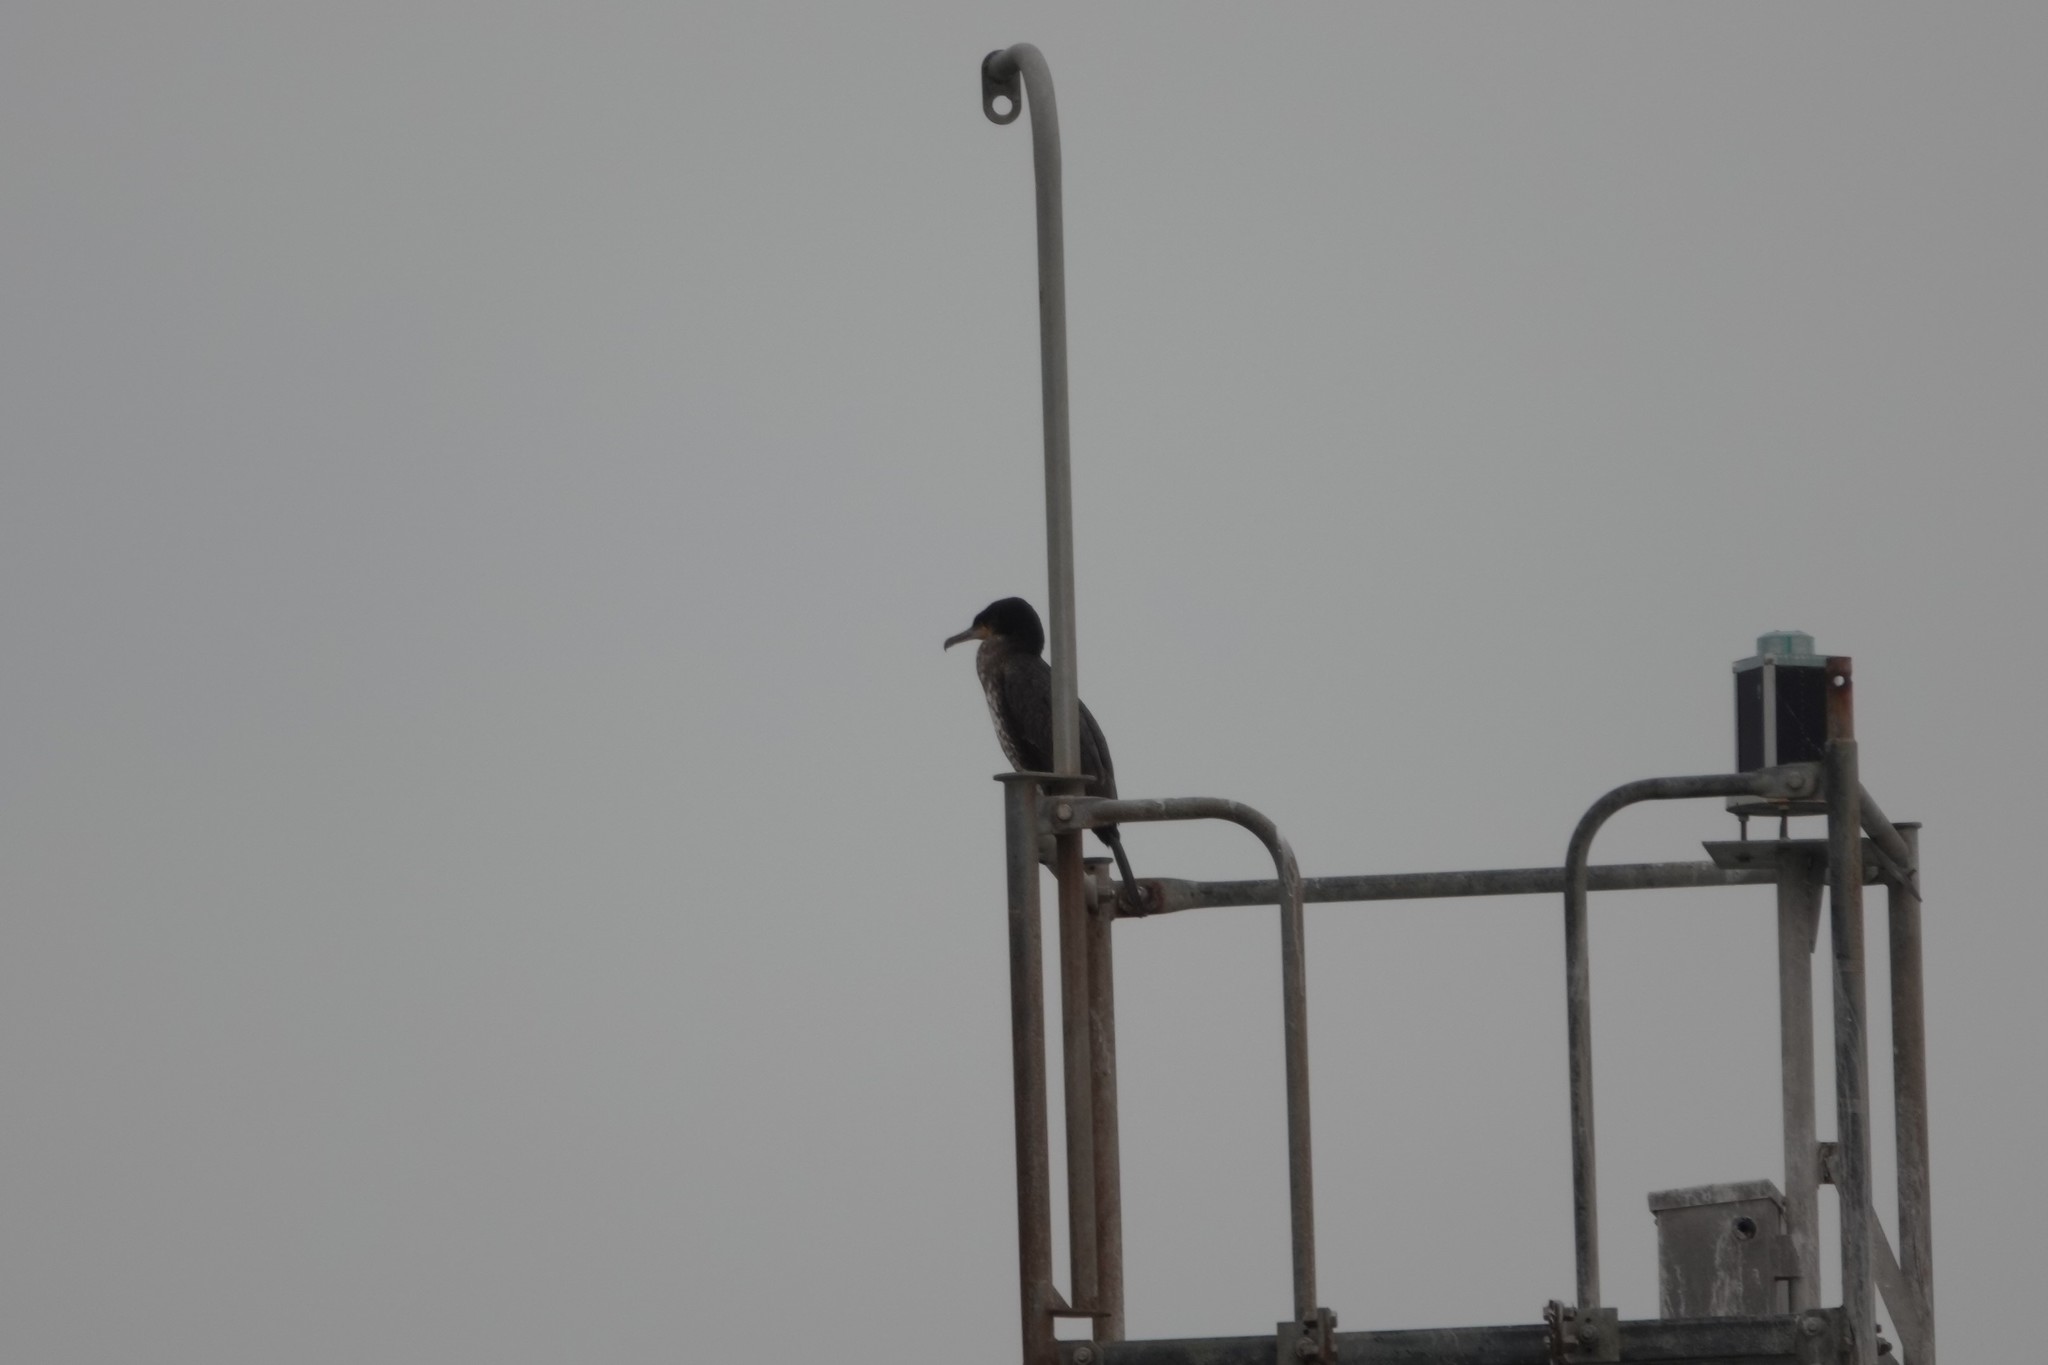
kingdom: Animalia
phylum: Chordata
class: Aves
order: Suliformes
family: Phalacrocoracidae
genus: Phalacrocorax
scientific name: Phalacrocorax carbo
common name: Great cormorant
